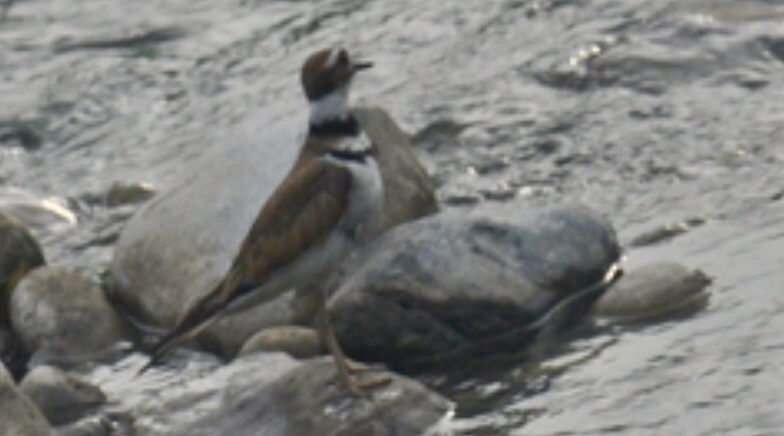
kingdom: Animalia
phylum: Chordata
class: Aves
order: Charadriiformes
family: Charadriidae
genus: Charadrius
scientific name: Charadrius vociferus
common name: Killdeer
